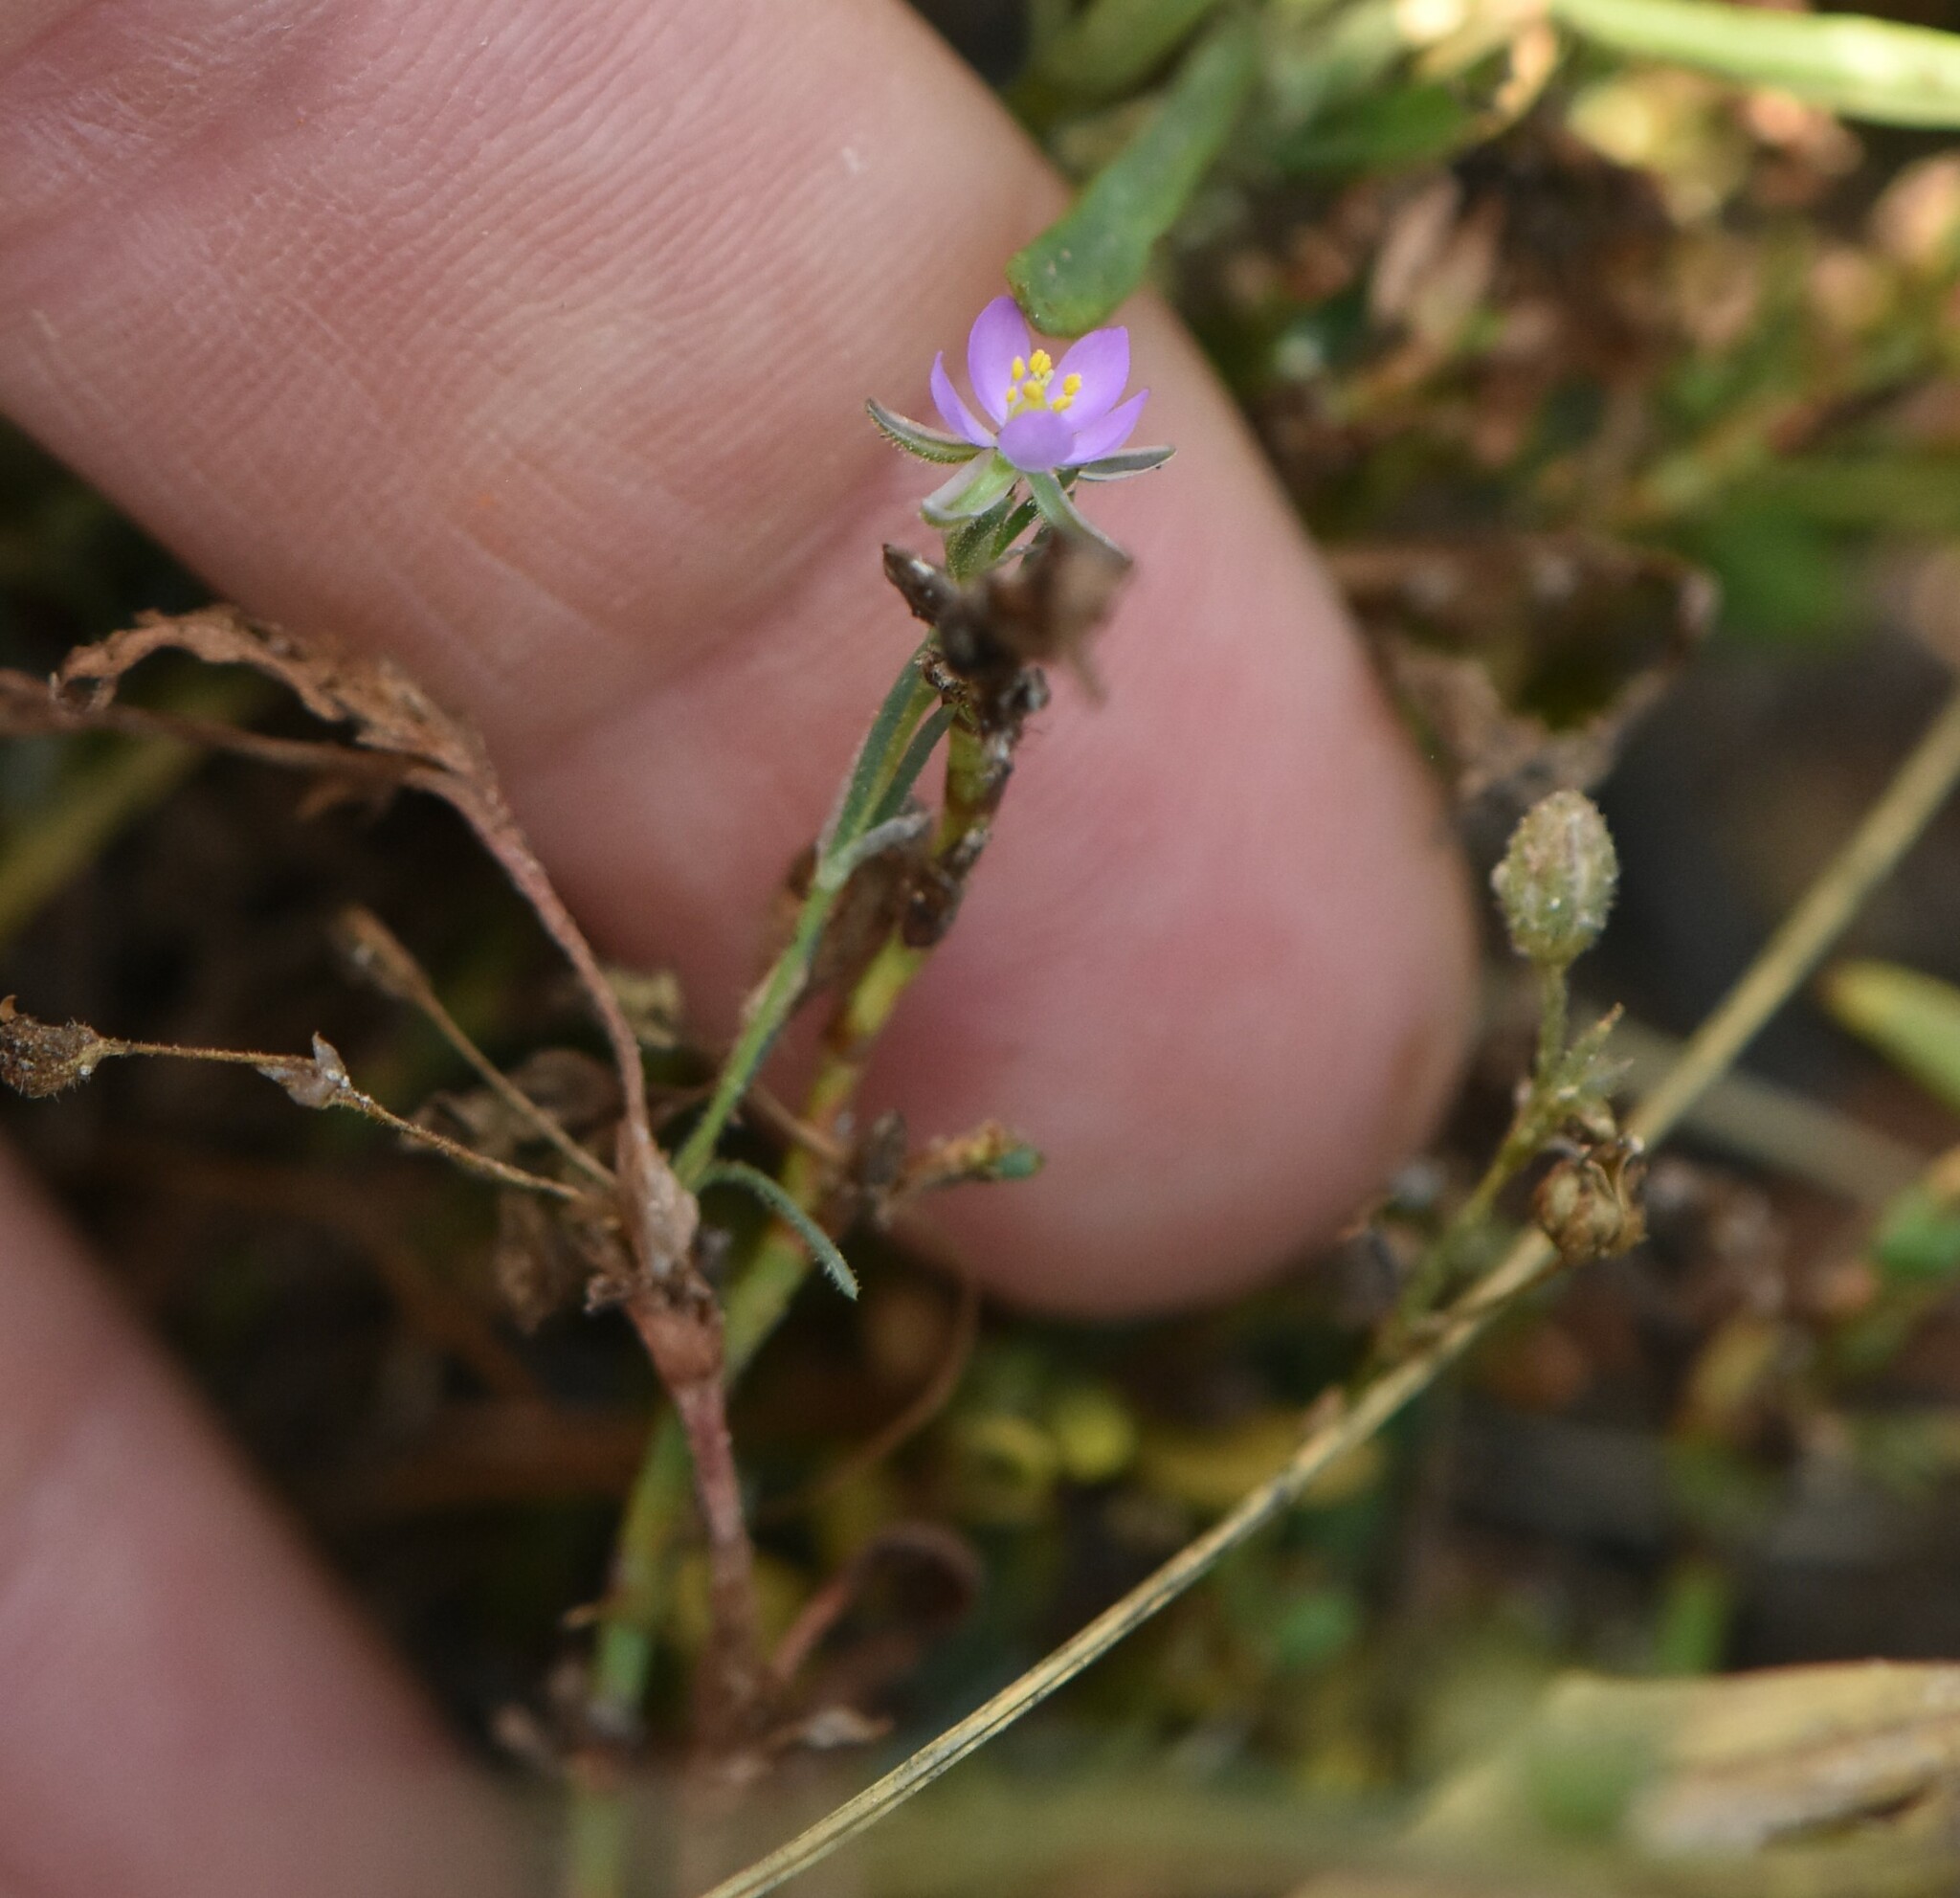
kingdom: Plantae
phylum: Tracheophyta
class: Magnoliopsida
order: Caryophyllales
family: Caryophyllaceae
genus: Spergularia
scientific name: Spergularia rubra
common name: Red sand-spurrey
